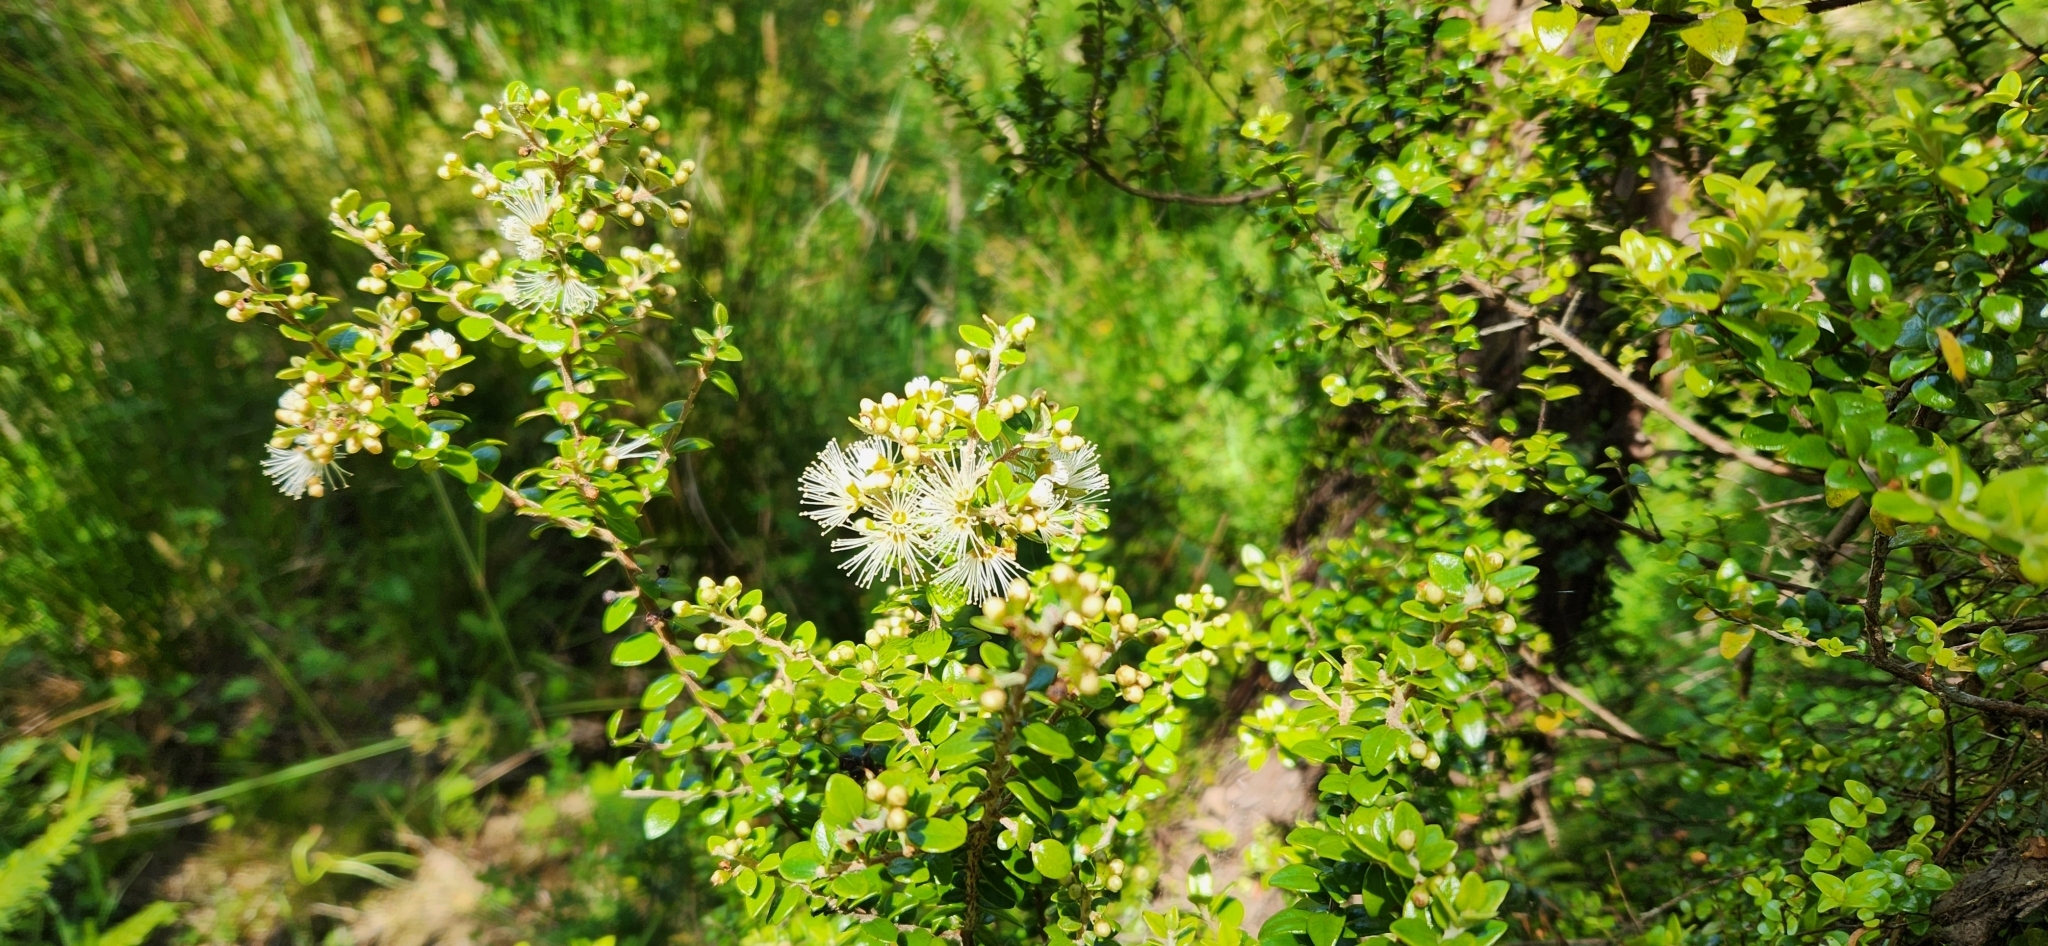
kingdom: Plantae
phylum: Tracheophyta
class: Magnoliopsida
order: Myrtales
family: Myrtaceae
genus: Metrosideros
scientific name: Metrosideros perforata
